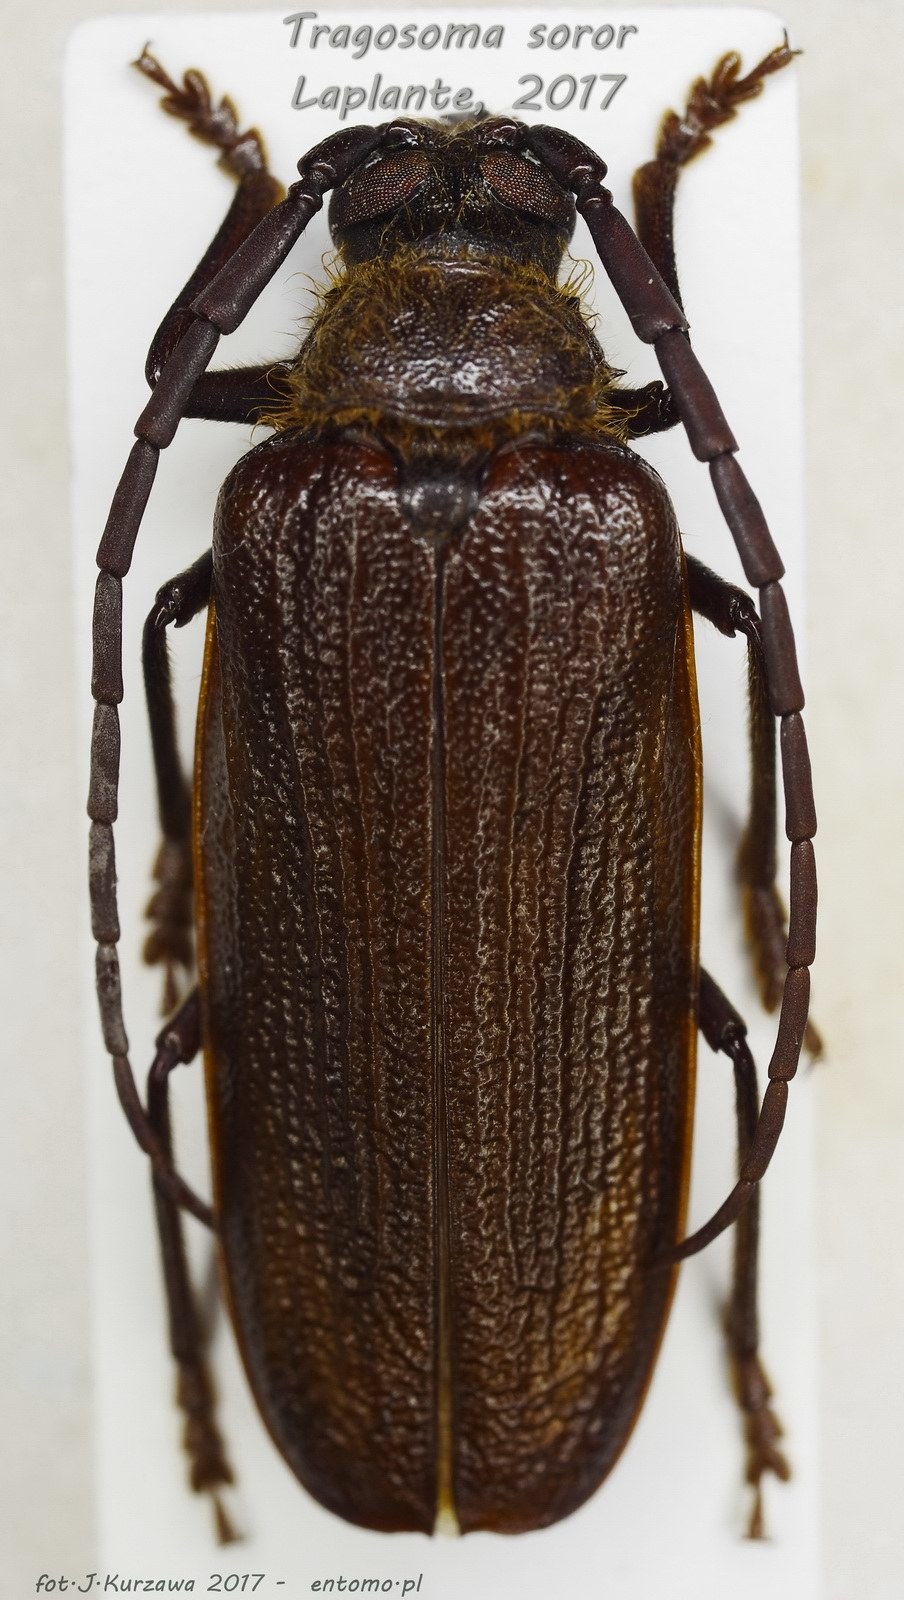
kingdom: Animalia
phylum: Arthropoda
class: Insecta
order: Coleoptera
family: Cerambycidae
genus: Tragosoma
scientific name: Tragosoma
